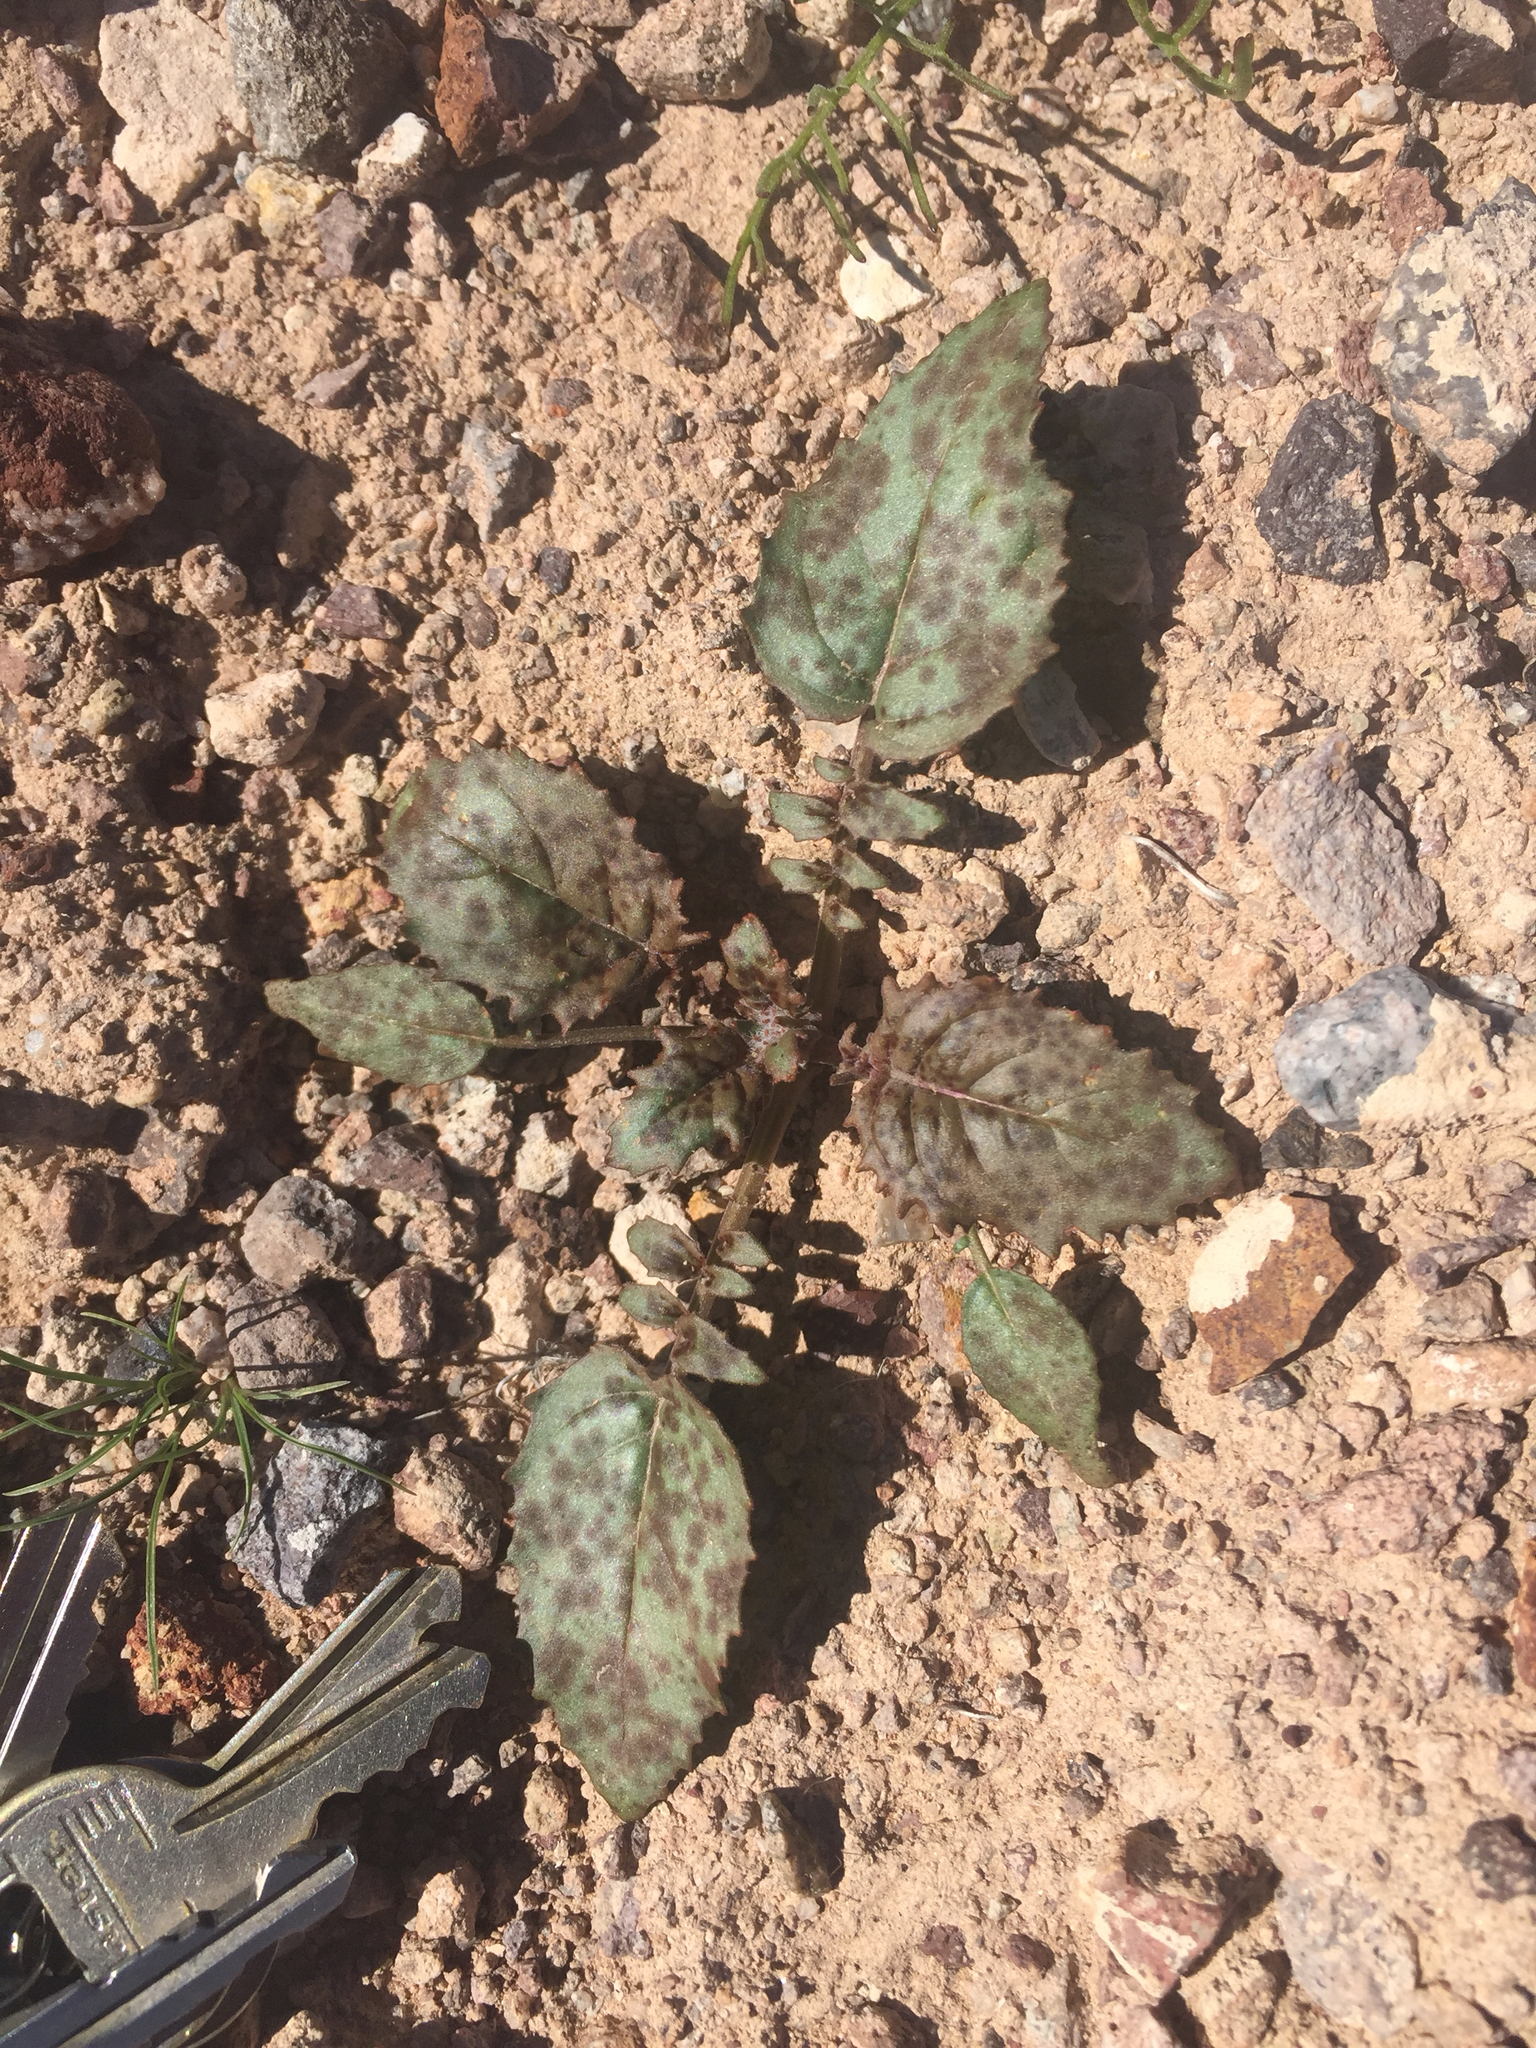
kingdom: Plantae
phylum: Tracheophyta
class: Magnoliopsida
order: Myrtales
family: Onagraceae
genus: Chylismia
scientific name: Chylismia brevipes
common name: Yellow cups
